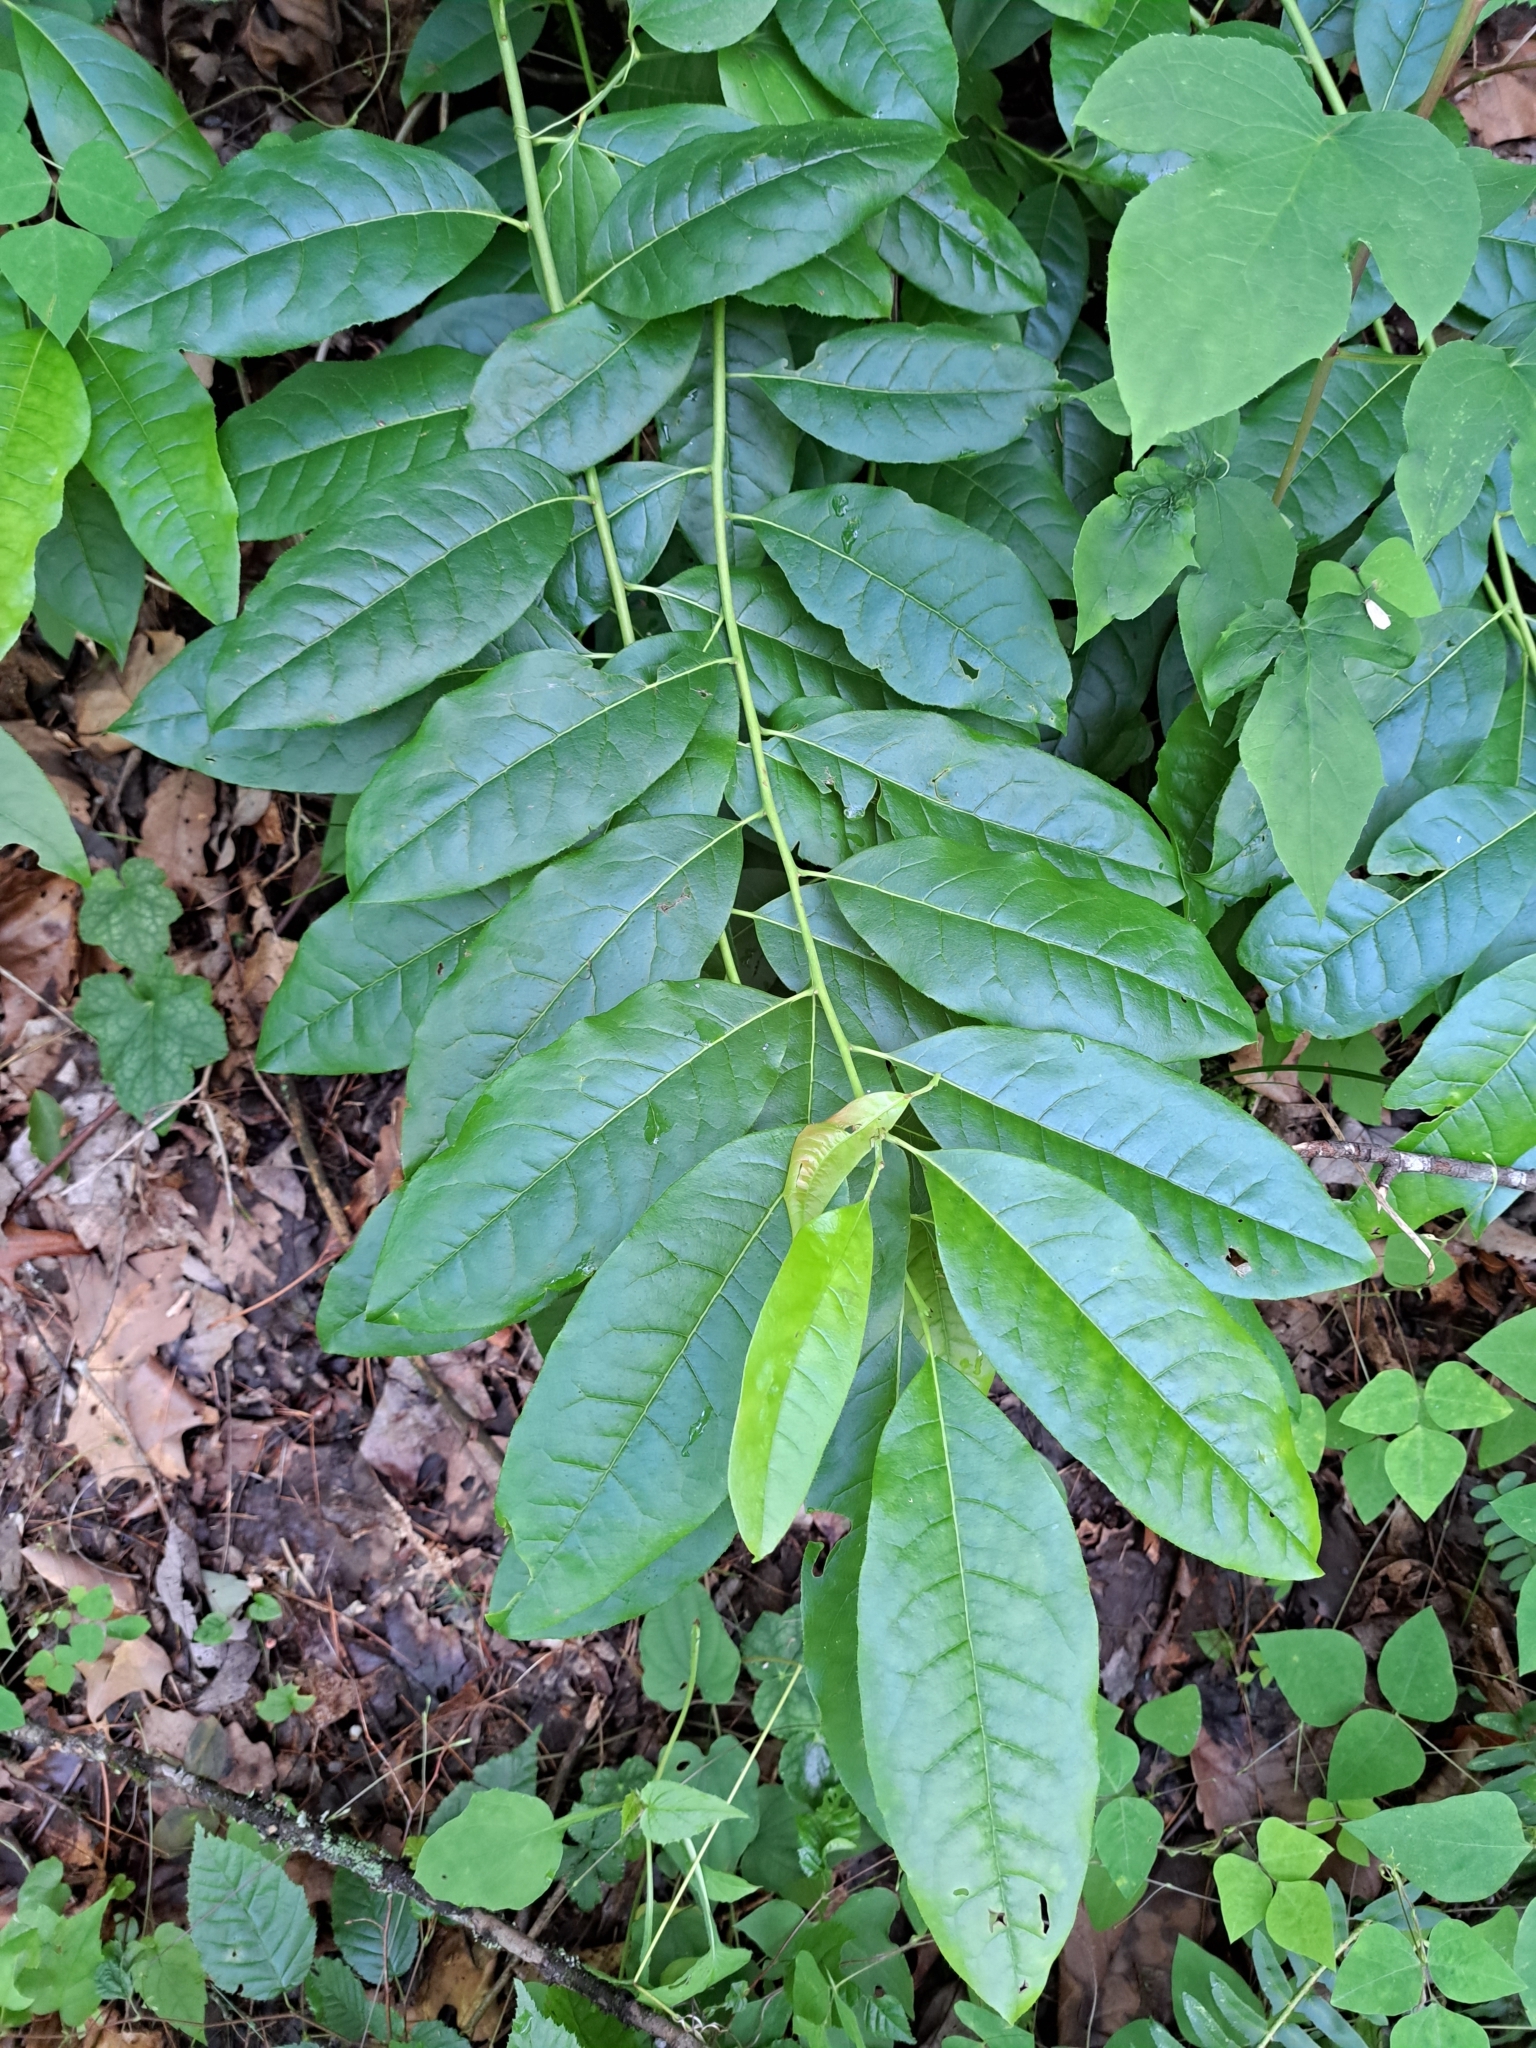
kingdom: Plantae
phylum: Tracheophyta
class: Magnoliopsida
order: Ericales
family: Ericaceae
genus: Oxydendrum
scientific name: Oxydendrum arboreum
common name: Sourwood
